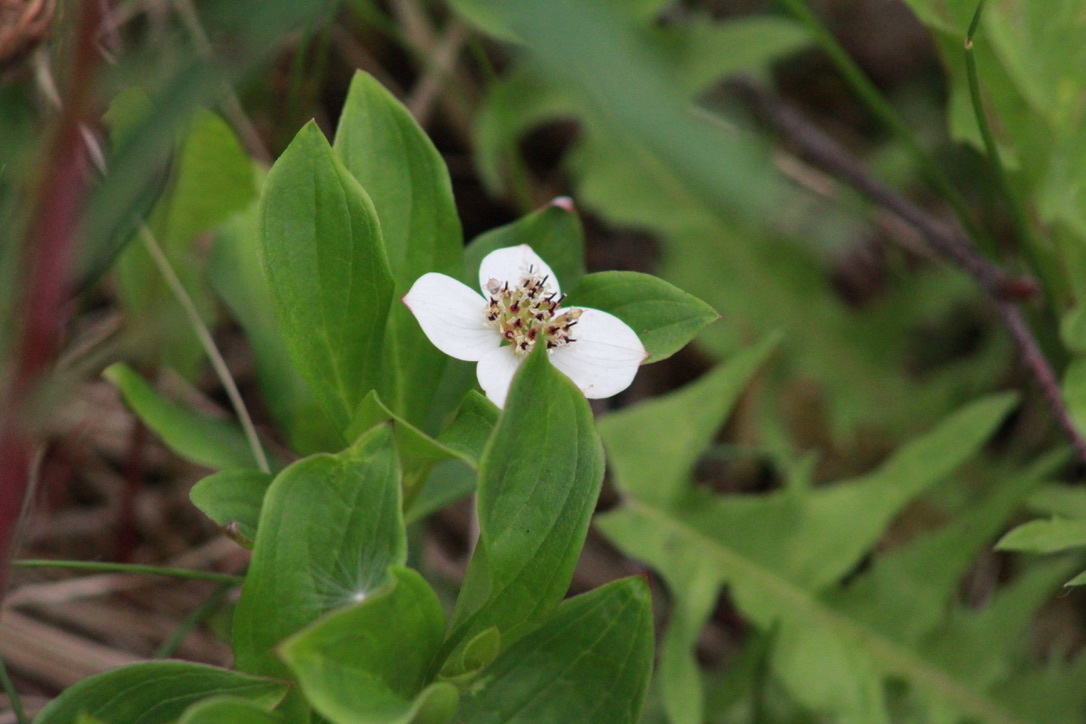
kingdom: Plantae
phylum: Tracheophyta
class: Magnoliopsida
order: Cornales
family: Cornaceae
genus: Cornus
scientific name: Cornus canadensis
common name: Creeping dogwood
